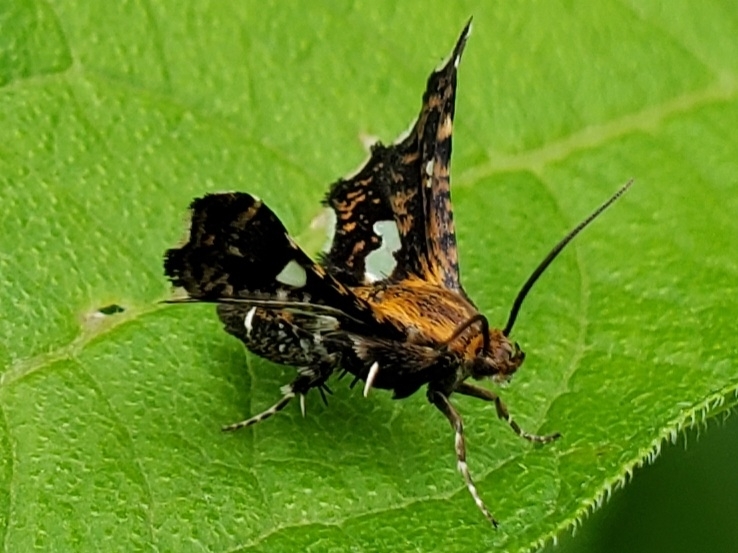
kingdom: Animalia
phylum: Arthropoda
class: Insecta
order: Lepidoptera
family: Thyrididae
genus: Thyris
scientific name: Thyris maculata
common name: Spotted thyris moth
